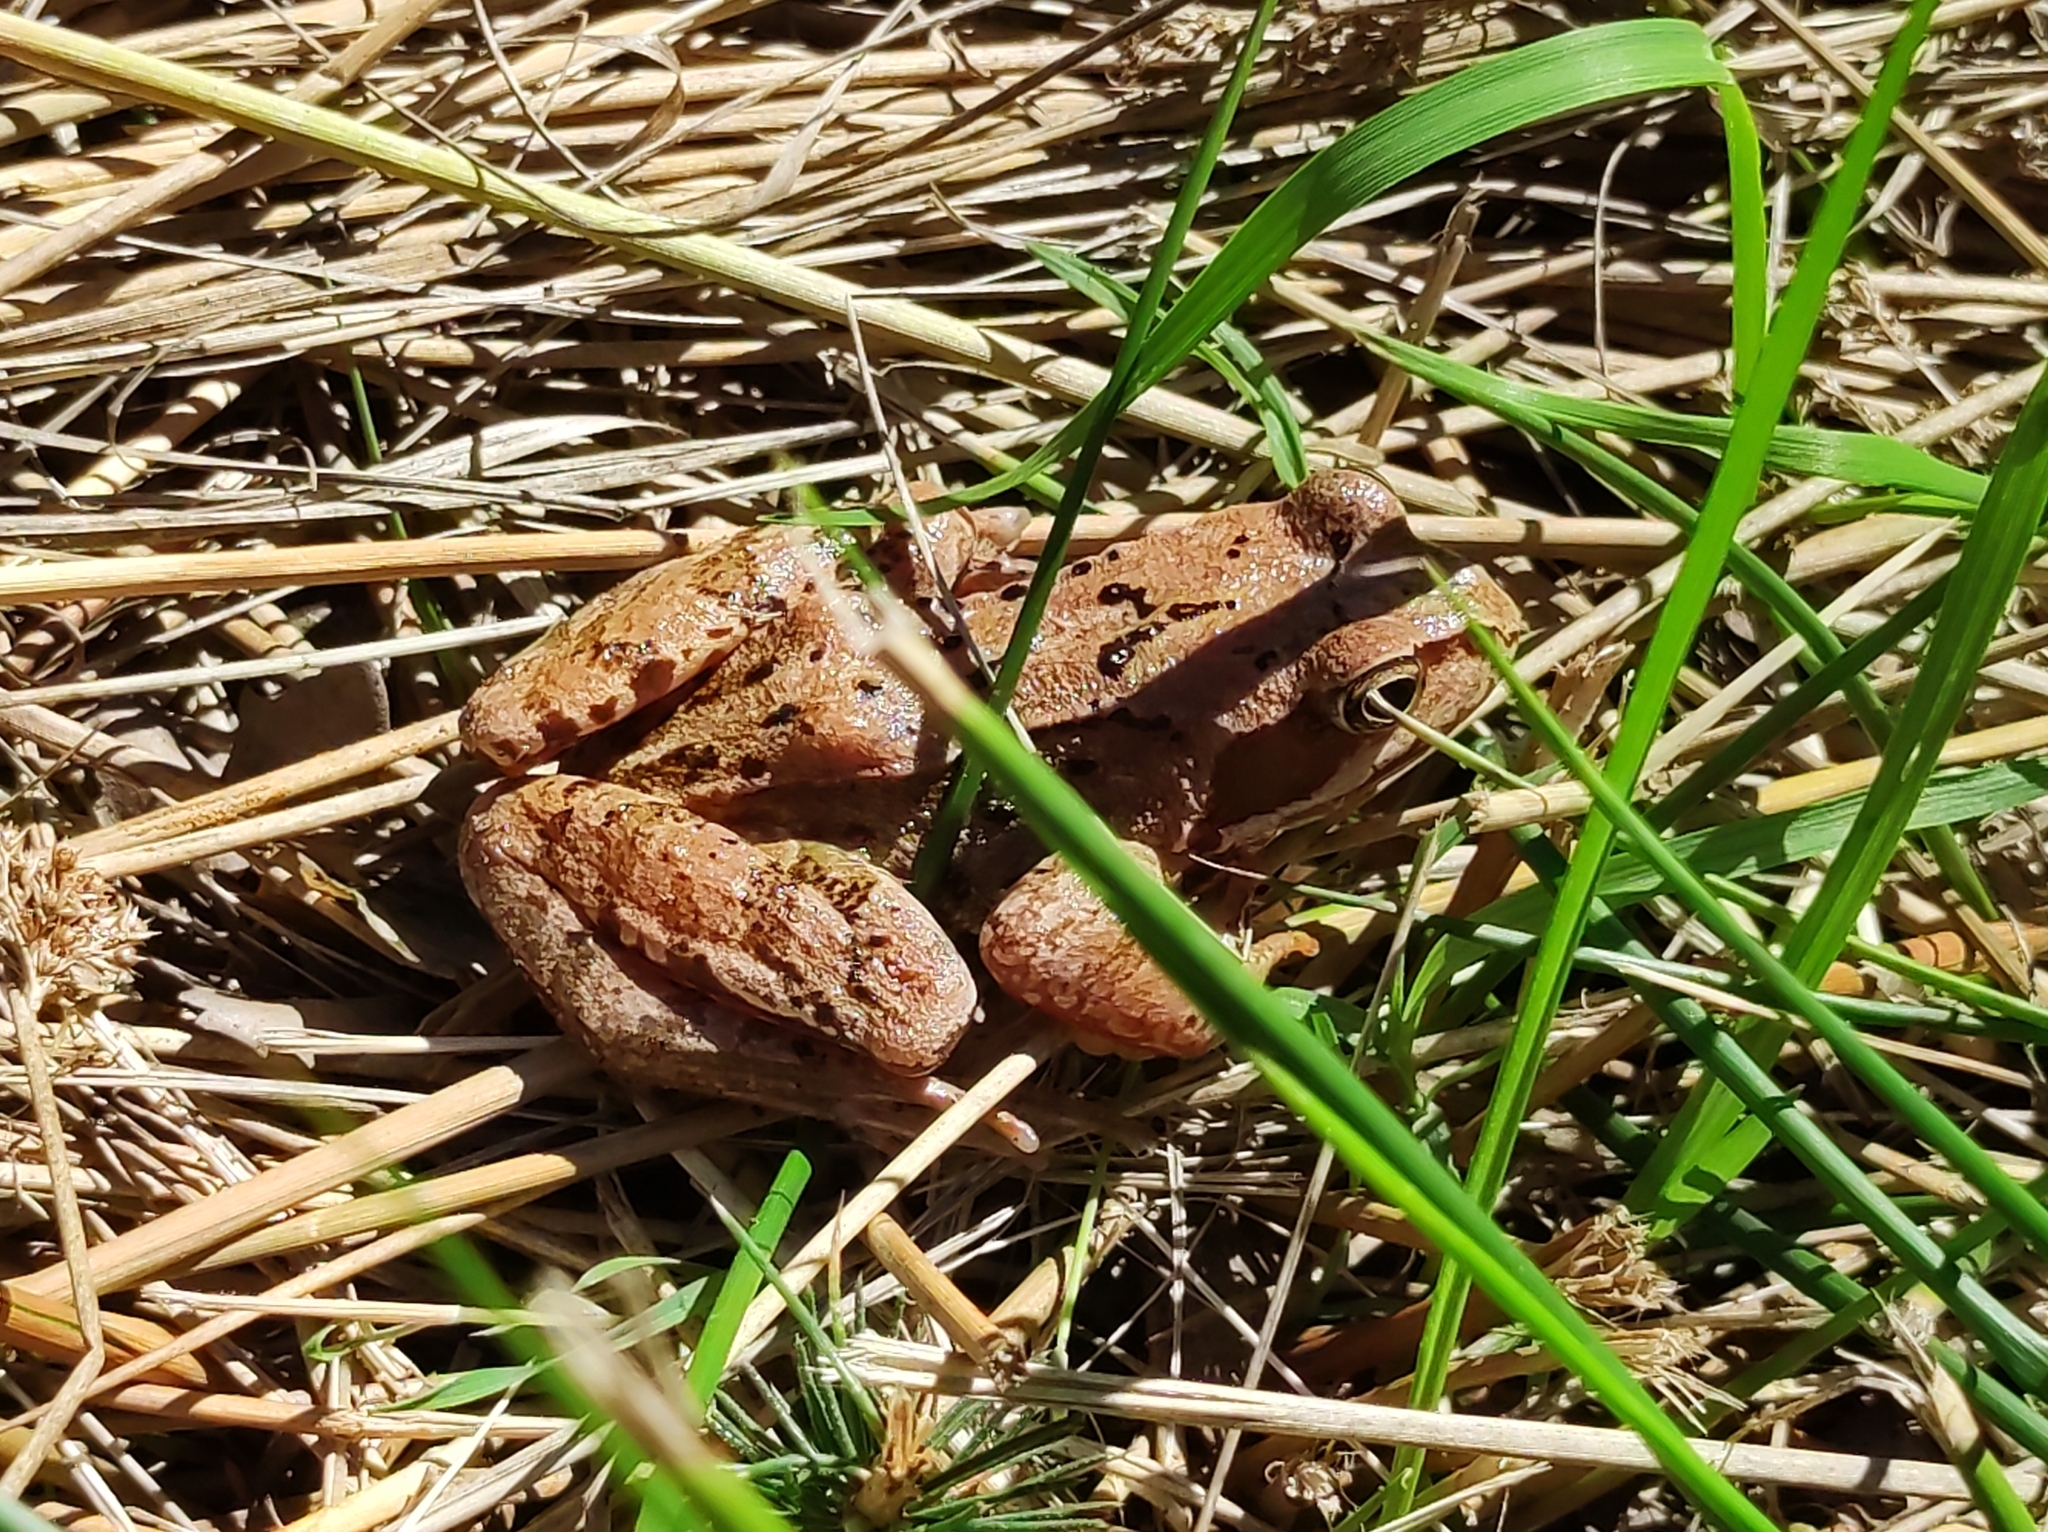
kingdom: Animalia
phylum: Chordata
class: Amphibia
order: Anura
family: Ranidae
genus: Rana
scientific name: Rana temporaria
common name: Common frog
